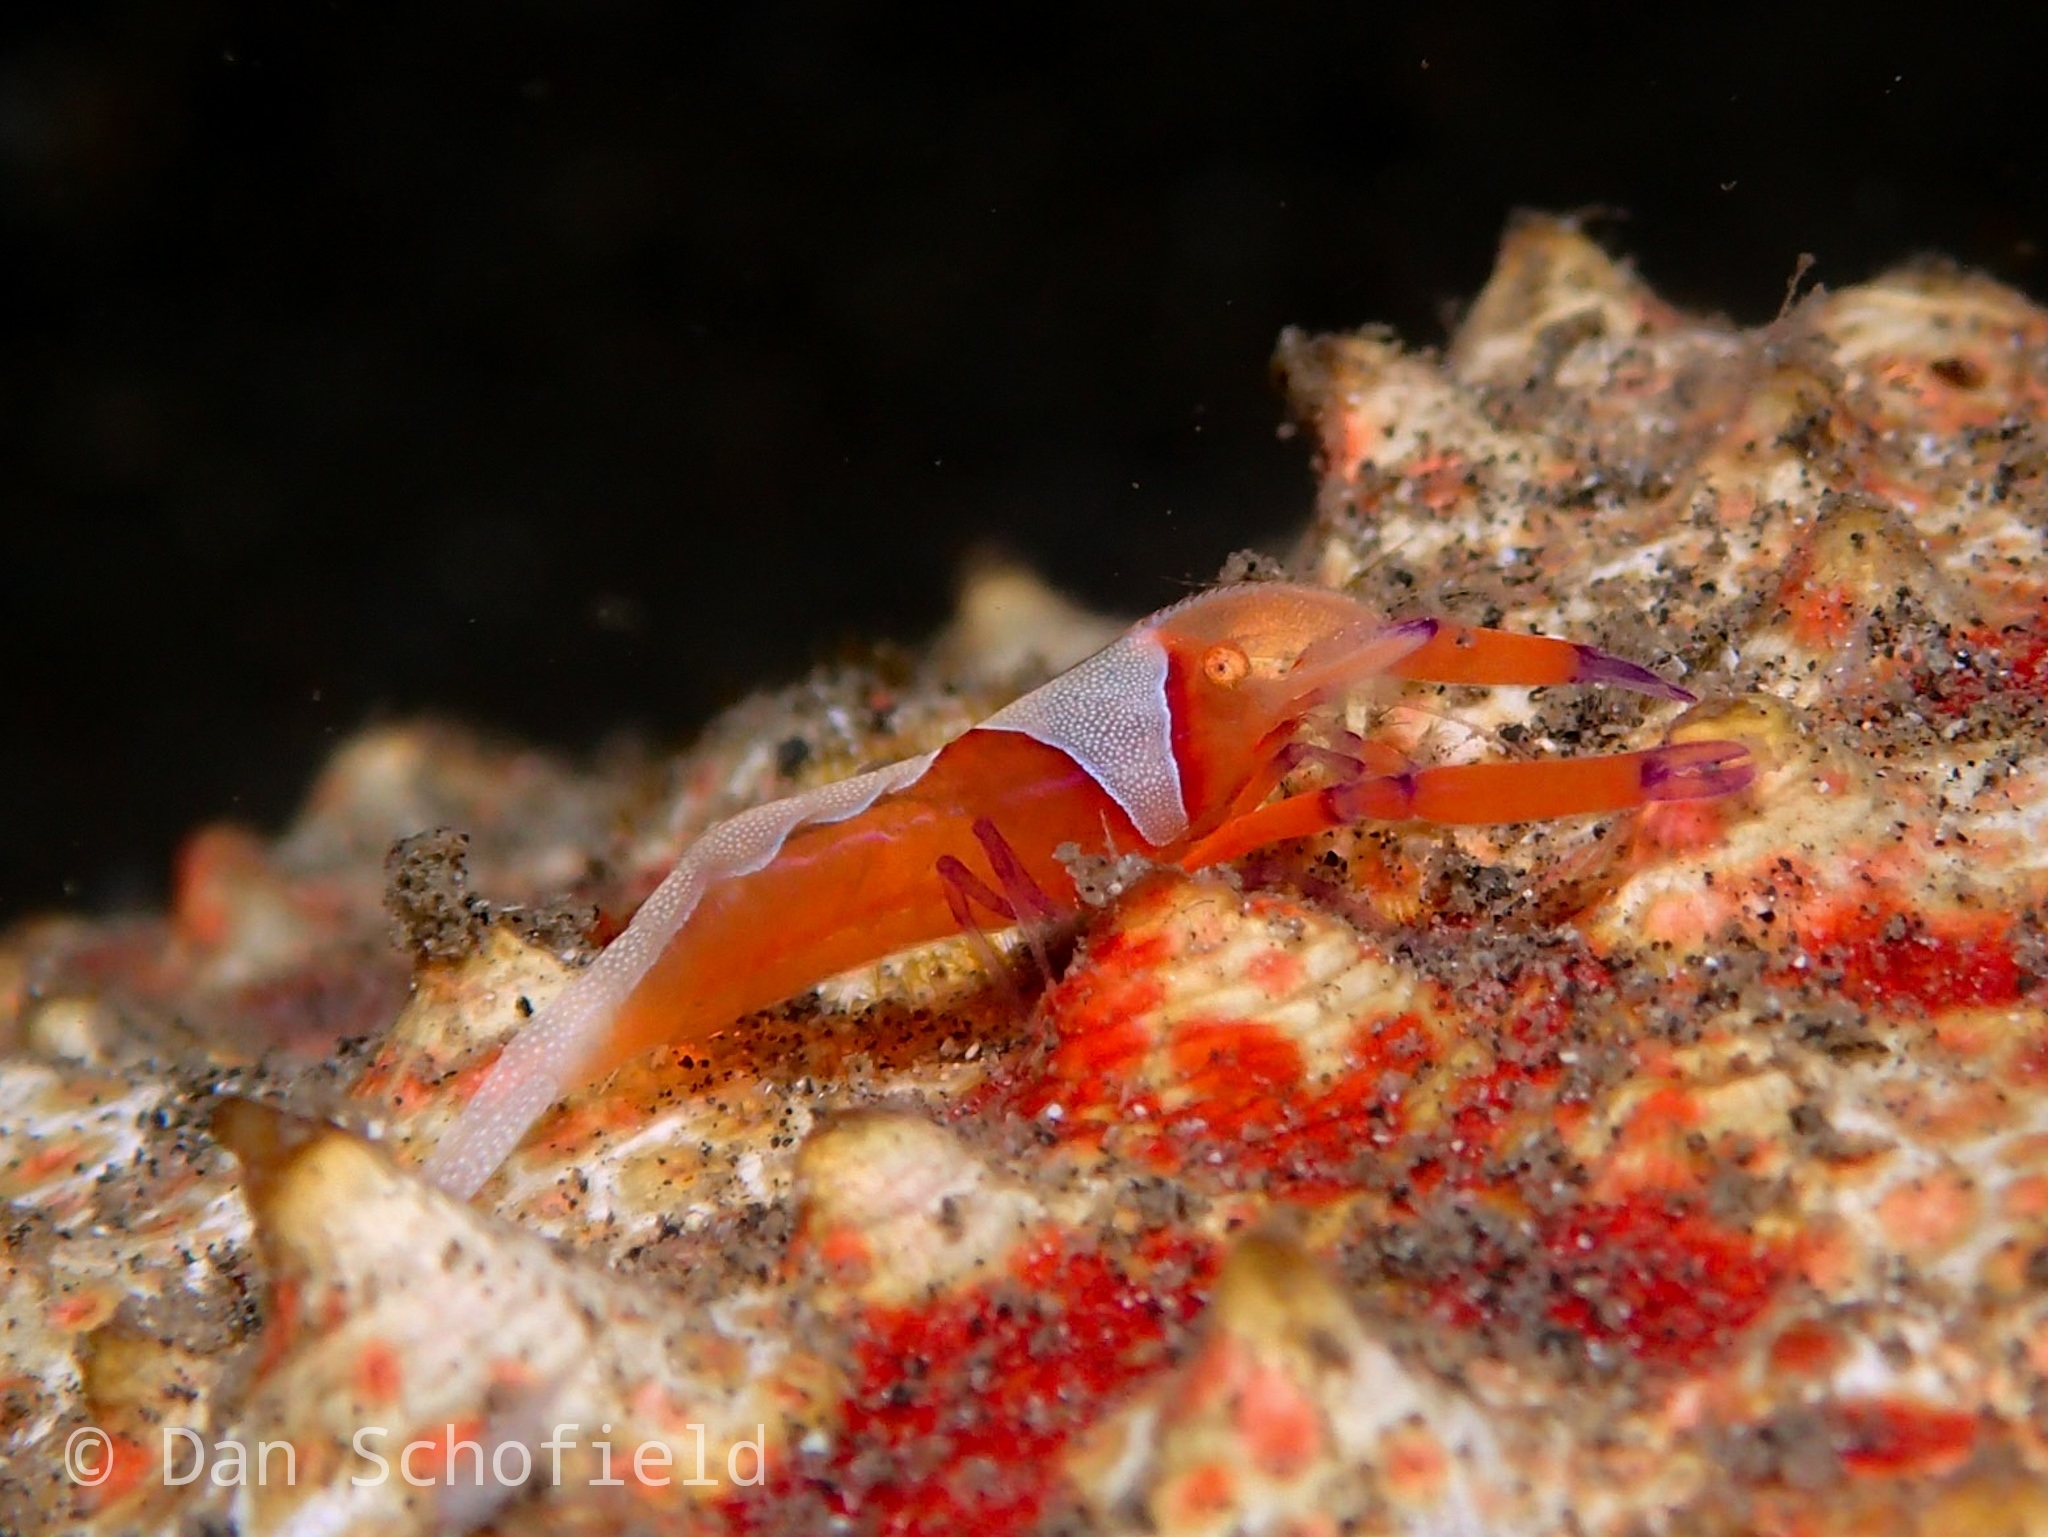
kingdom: Animalia
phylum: Arthropoda
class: Malacostraca
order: Decapoda
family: Palaemonidae
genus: Periclimenes
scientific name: Periclimenes rex
